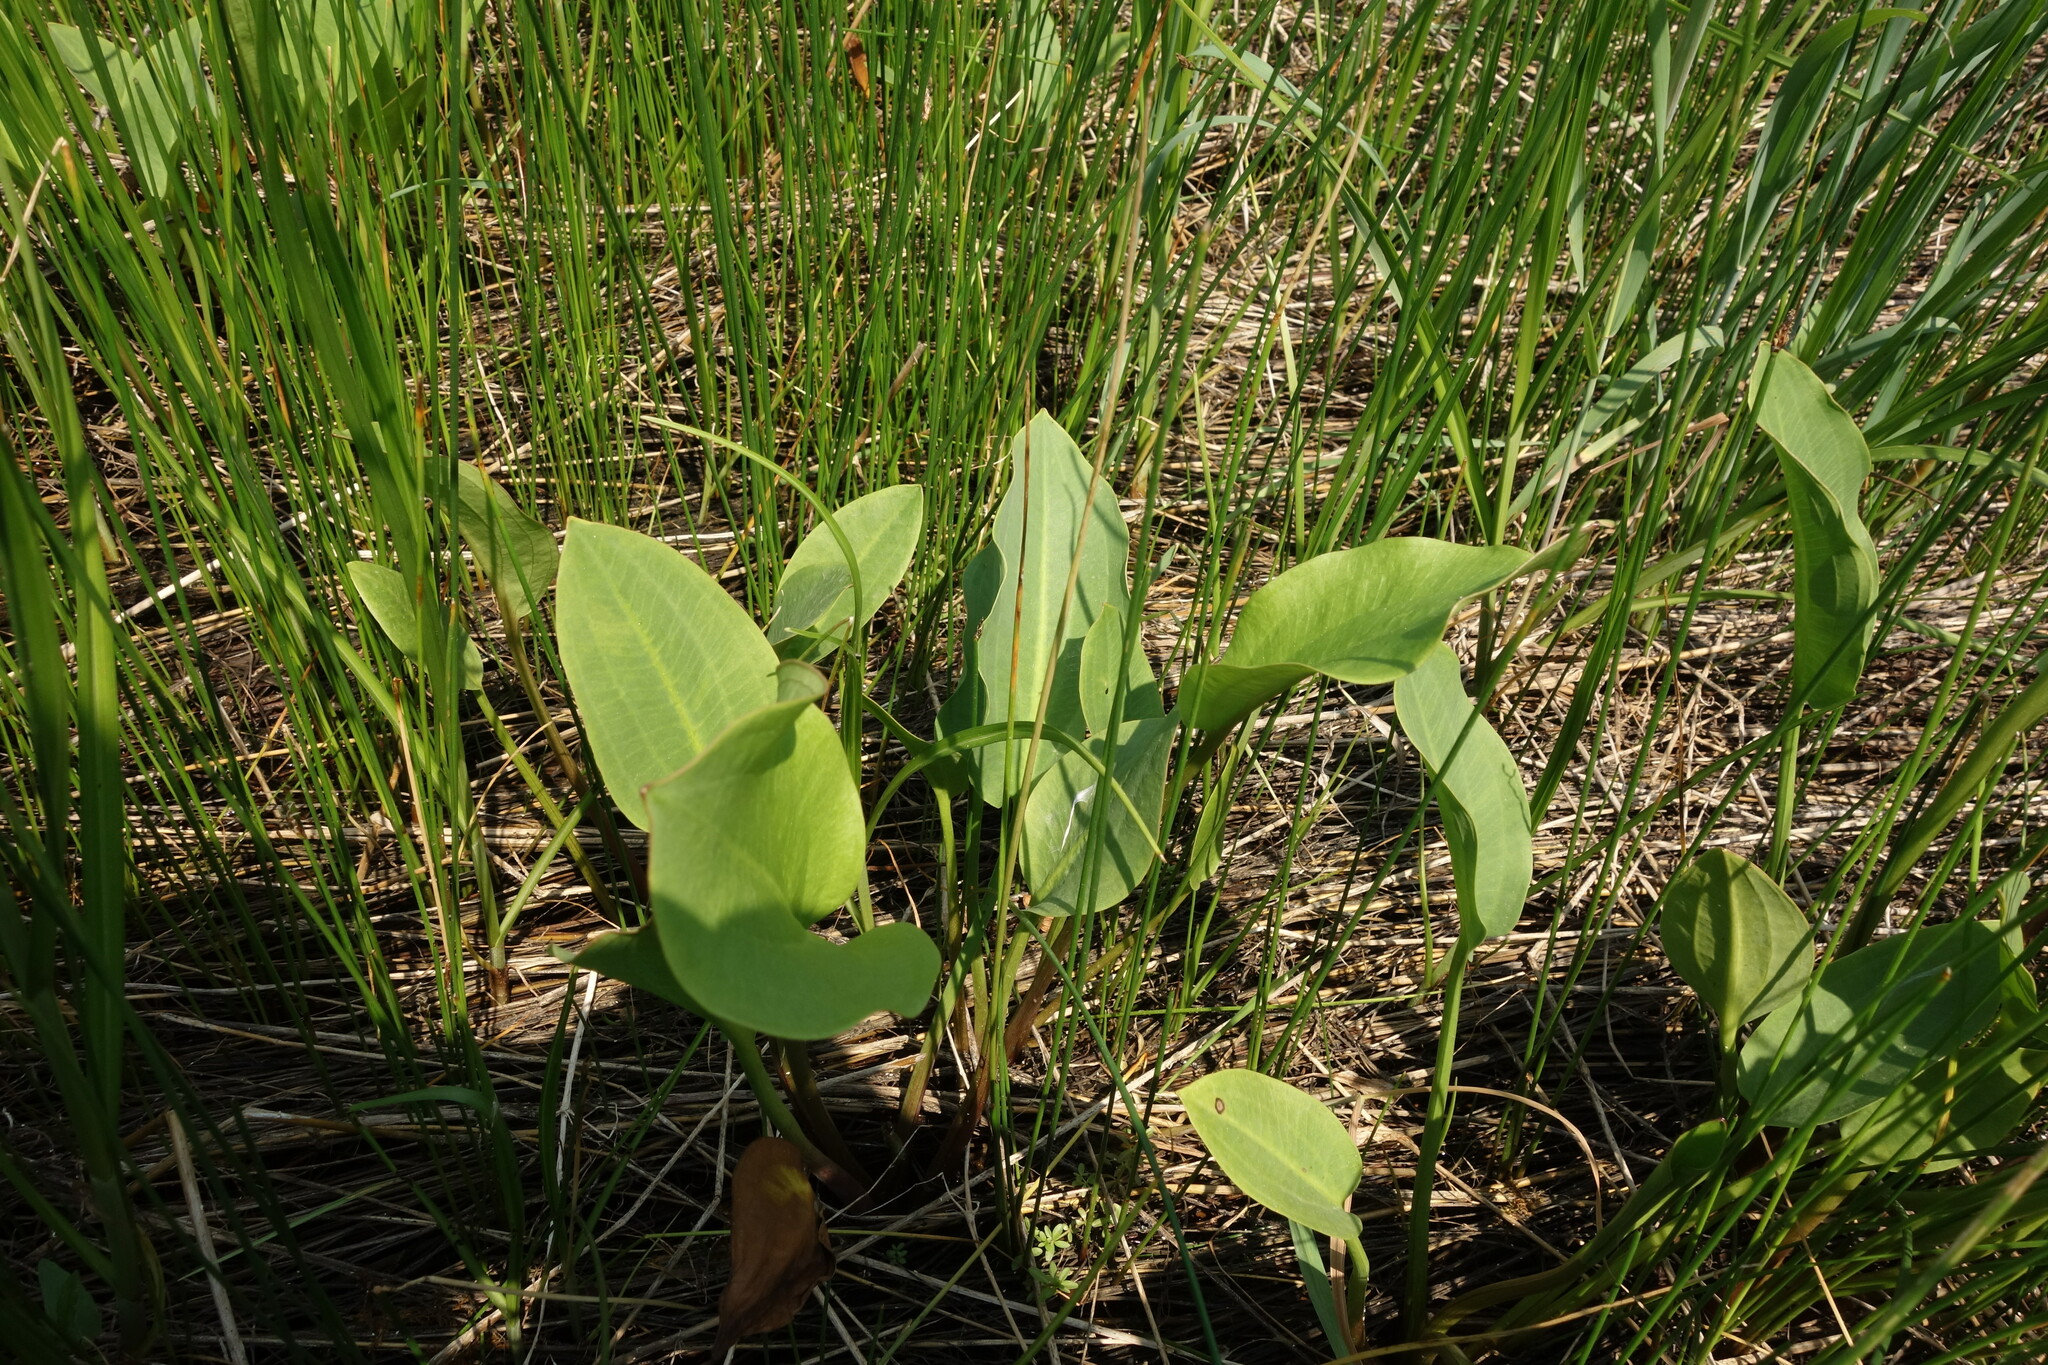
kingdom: Plantae
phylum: Tracheophyta
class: Liliopsida
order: Alismatales
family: Alismataceae
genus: Alisma
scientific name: Alisma plantago-aquatica
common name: Water-plantain
